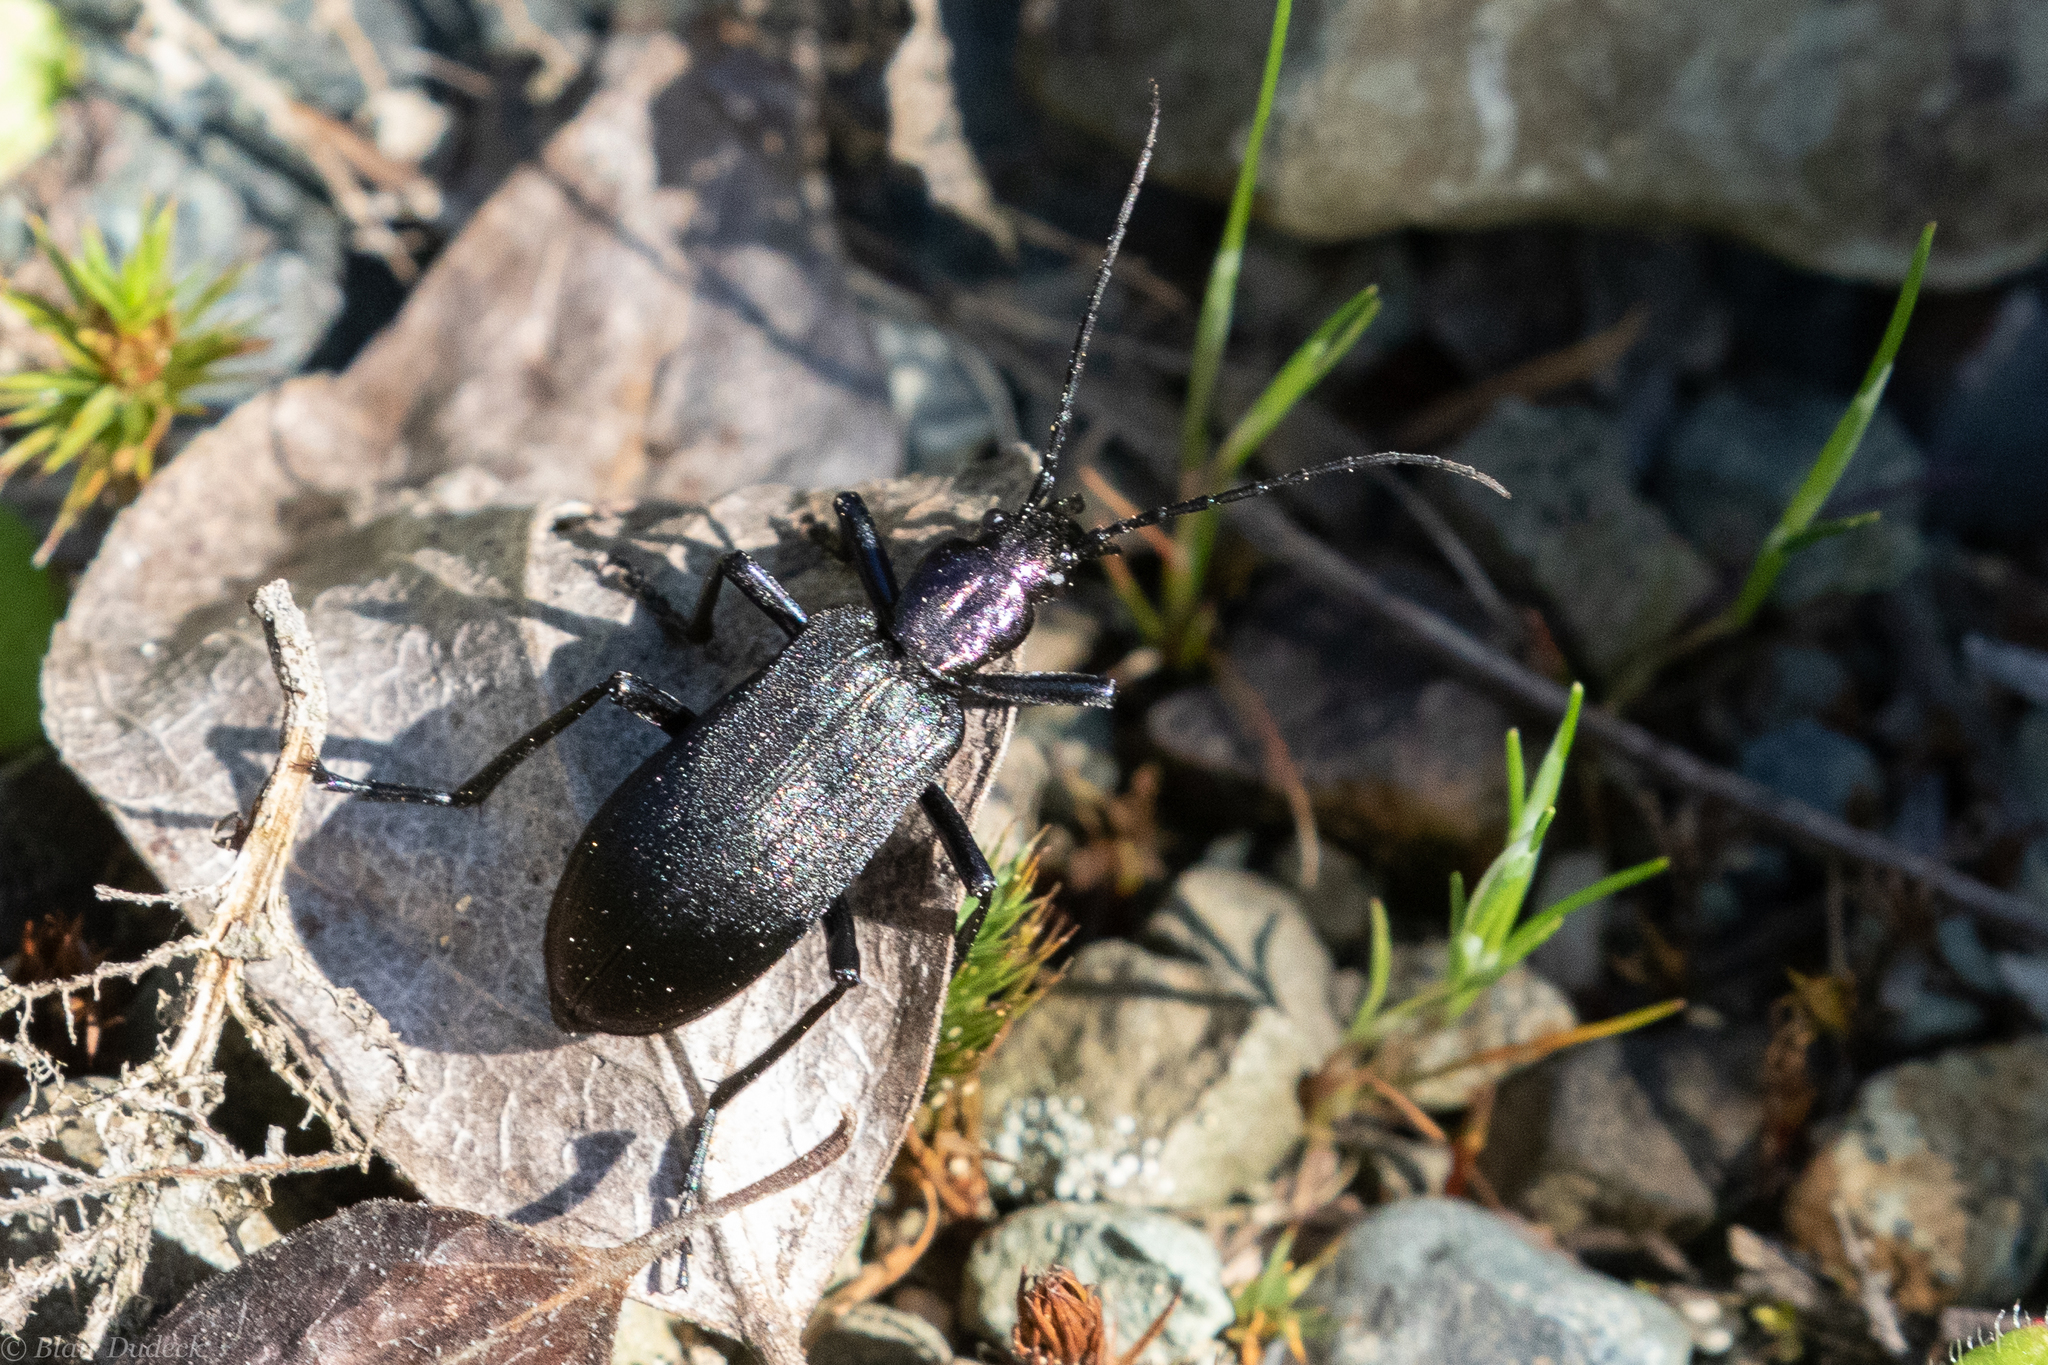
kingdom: Animalia
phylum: Arthropoda
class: Insecta
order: Coleoptera
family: Oedemeridae
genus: Ditylus
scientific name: Ditylus gracilis
